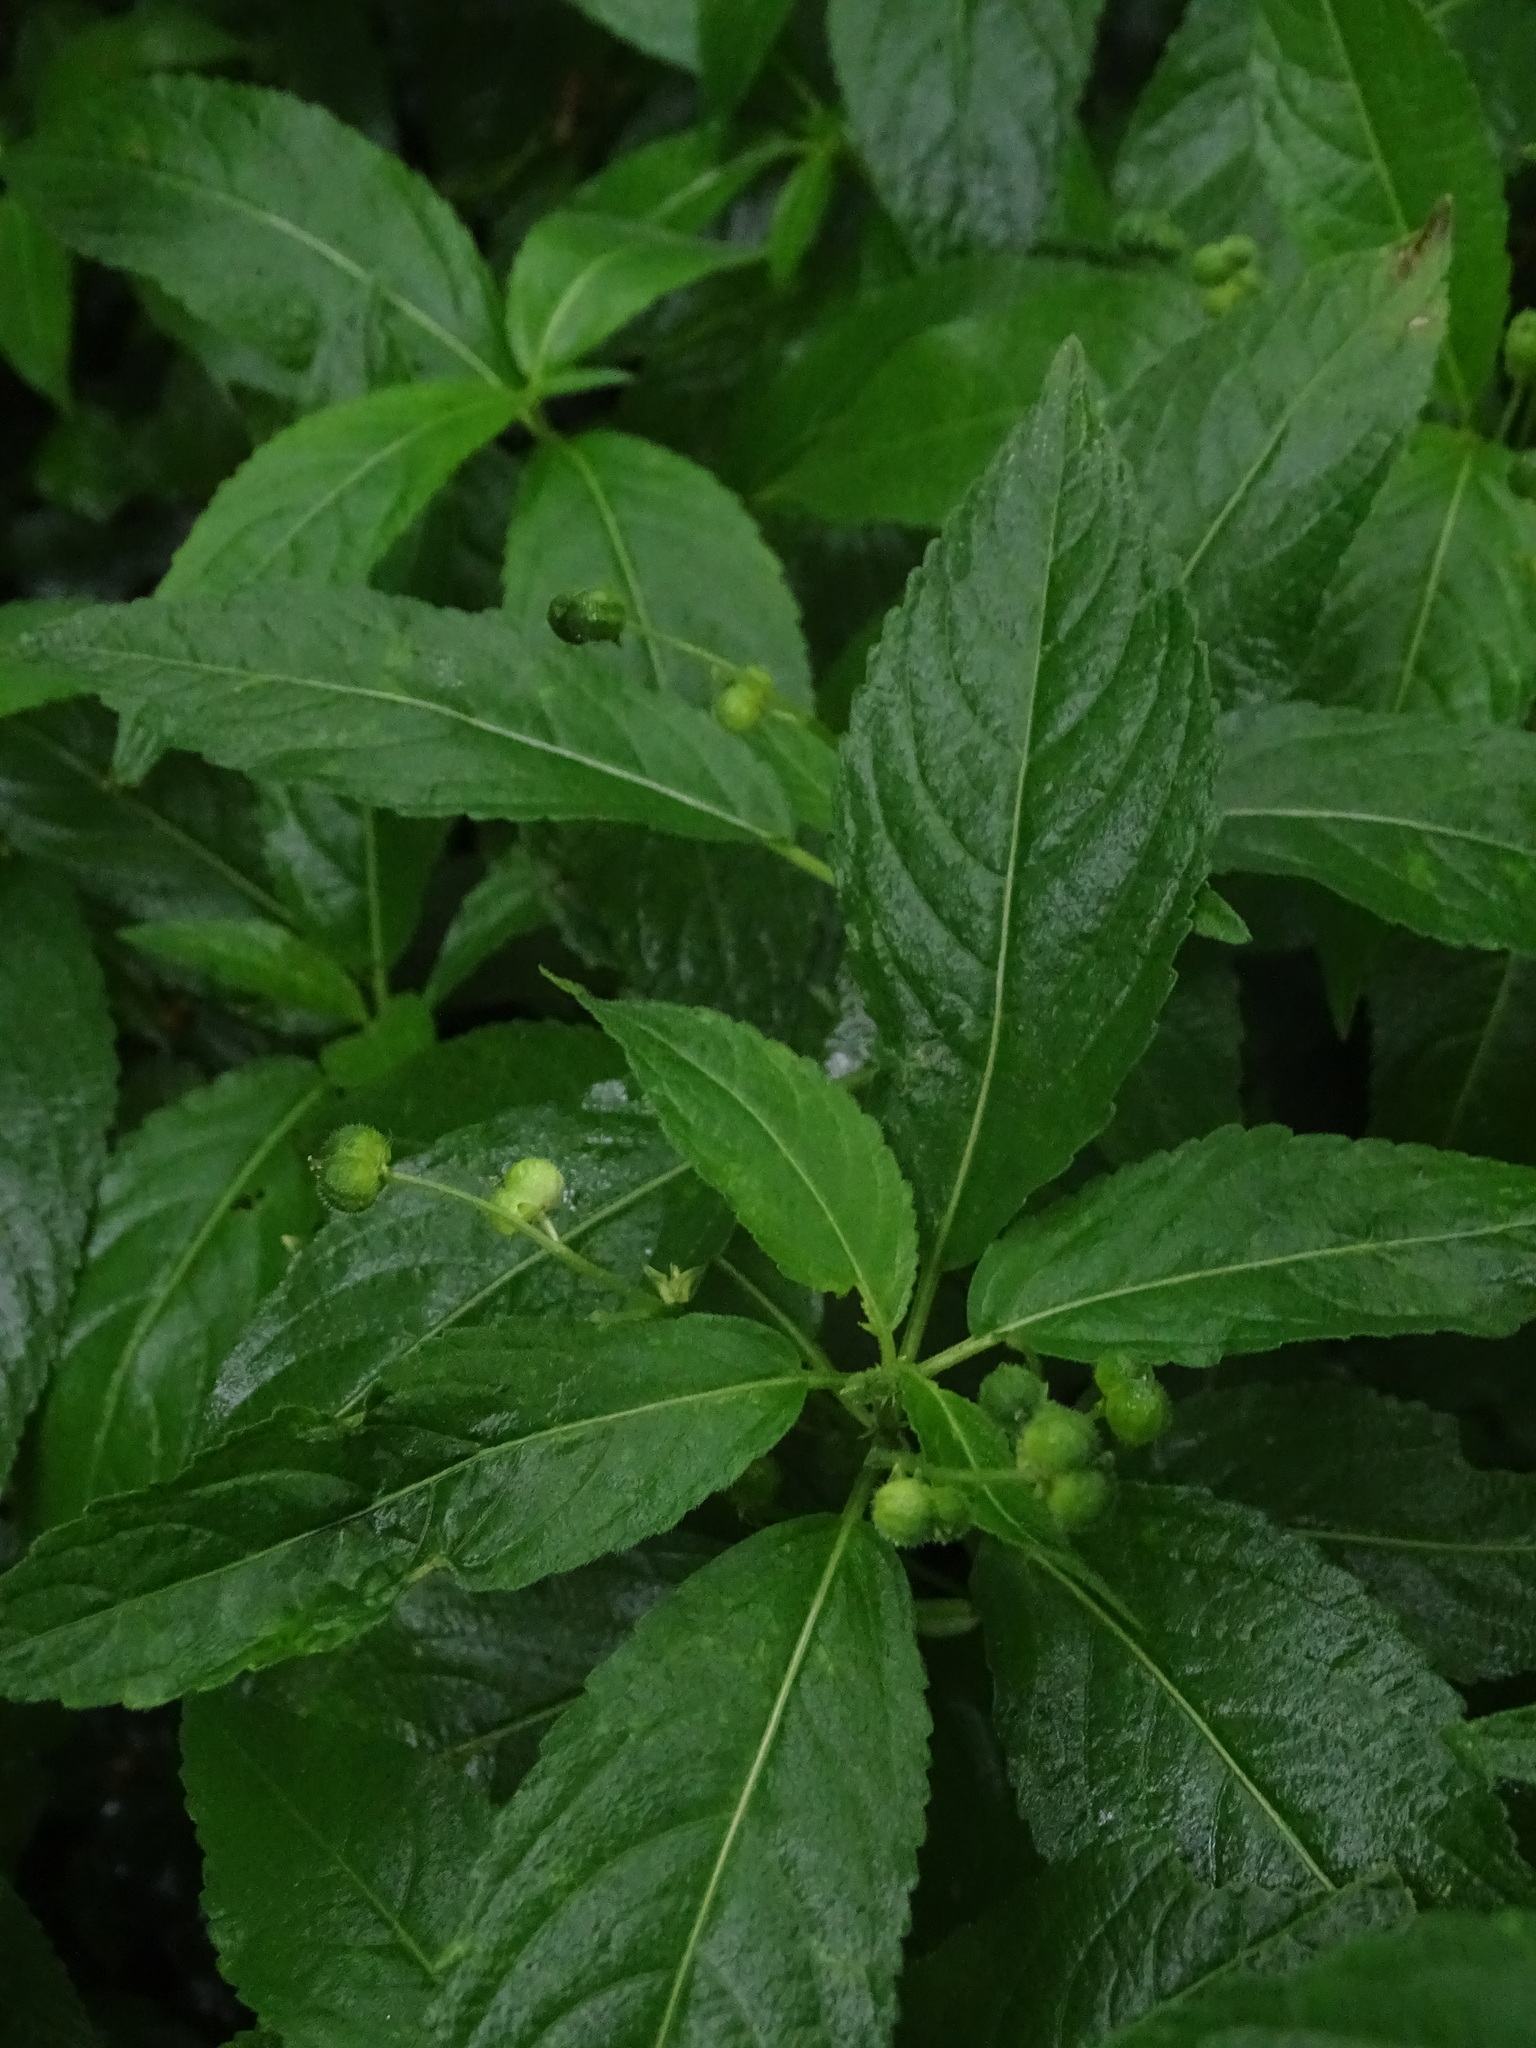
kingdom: Plantae
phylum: Tracheophyta
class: Magnoliopsida
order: Malpighiales
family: Euphorbiaceae
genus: Mercurialis
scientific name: Mercurialis perennis
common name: Dog mercury
